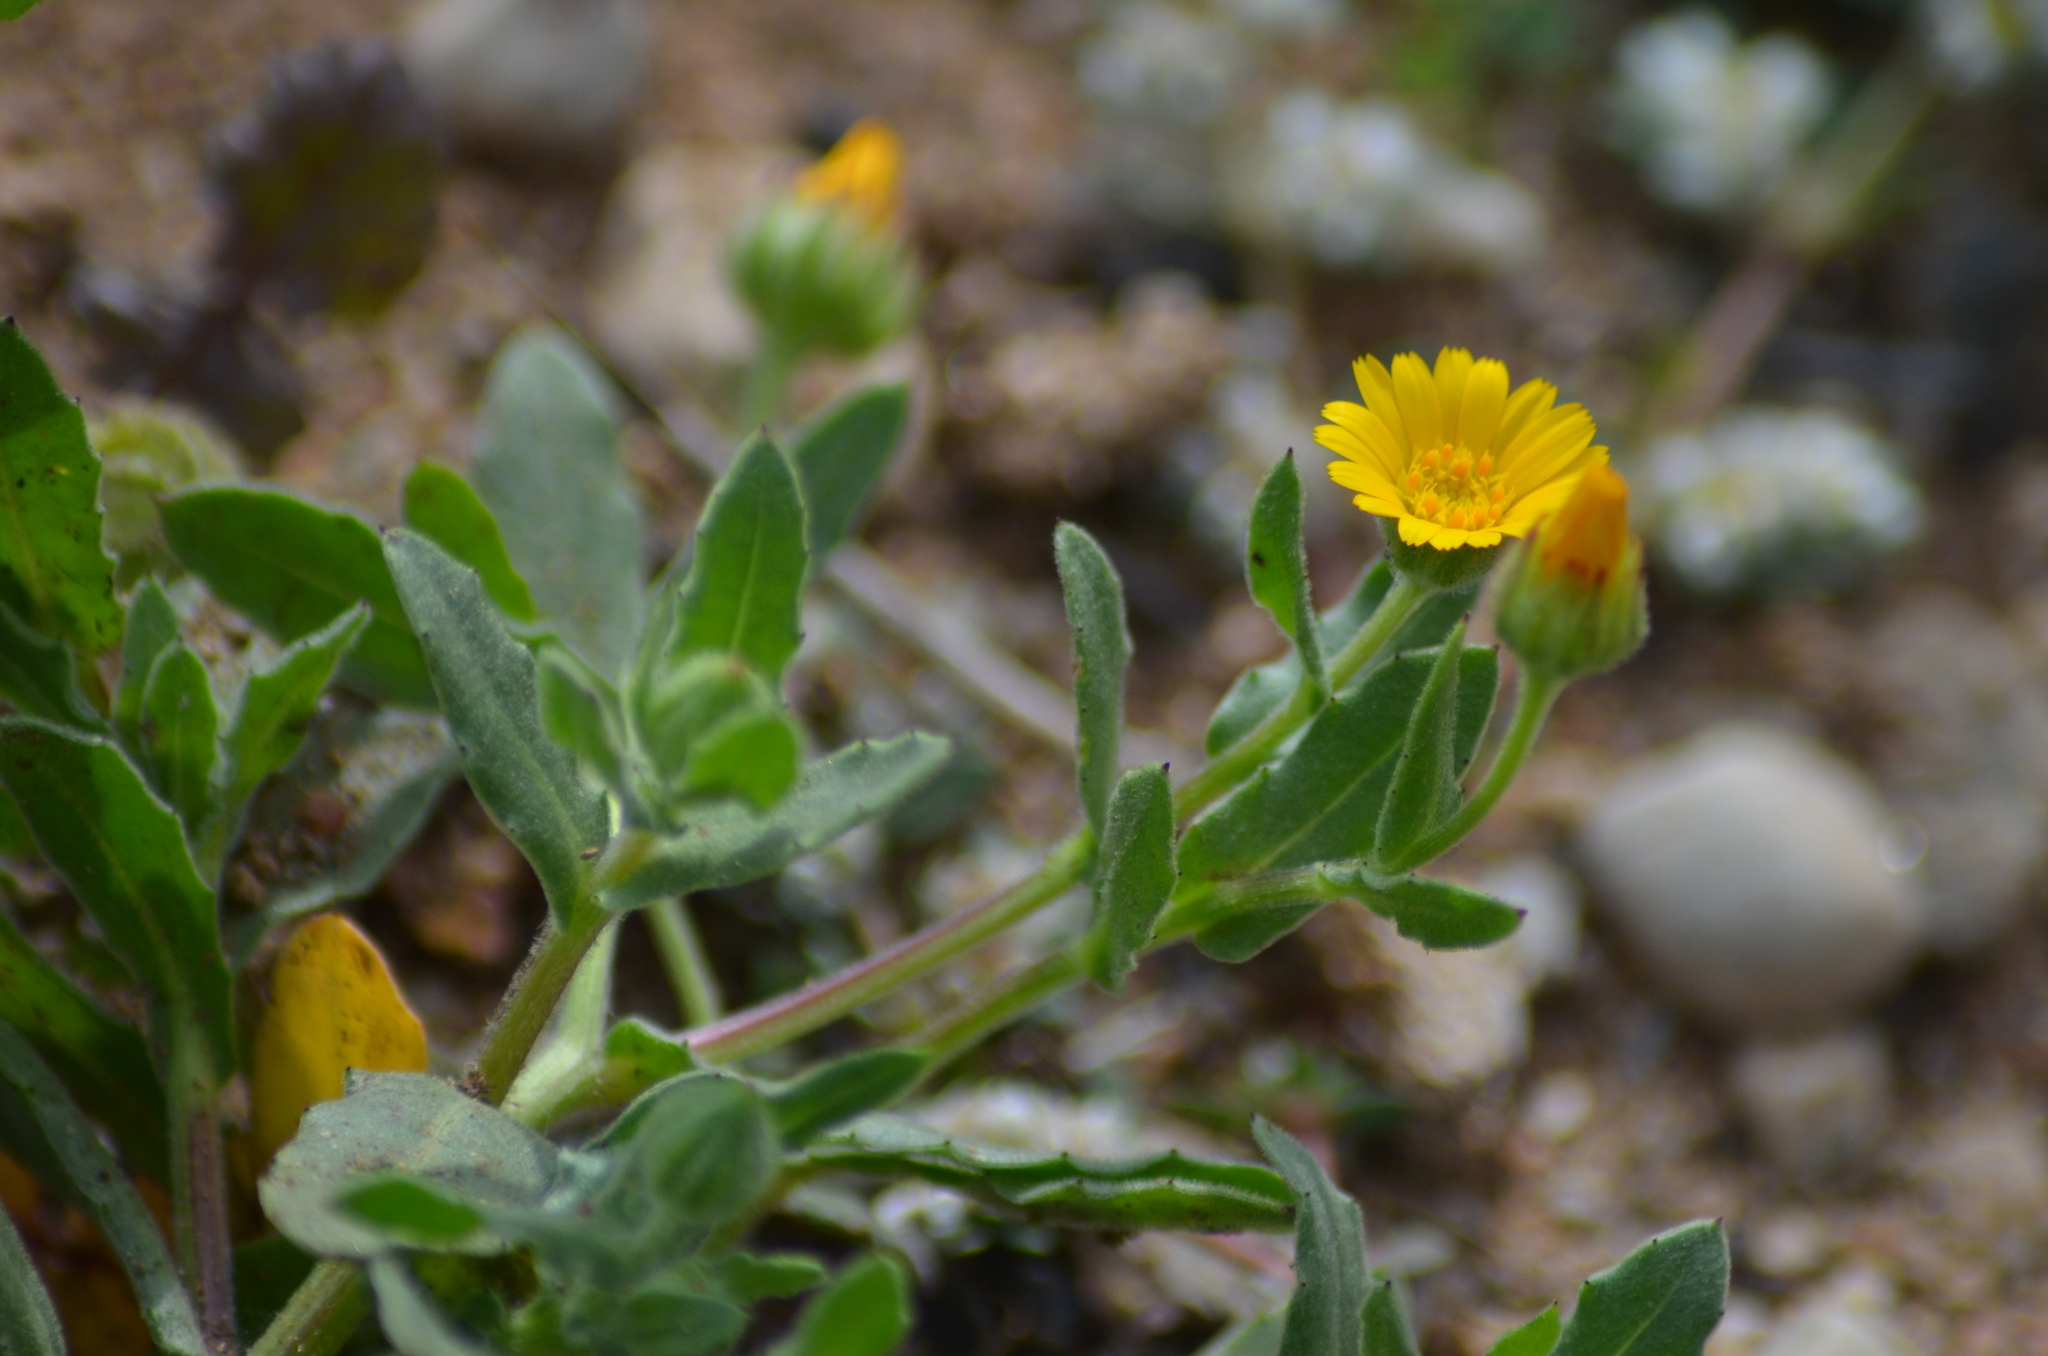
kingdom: Plantae
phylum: Tracheophyta
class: Magnoliopsida
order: Asterales
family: Asteraceae
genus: Calendula
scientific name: Calendula arvensis
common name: Field marigold
